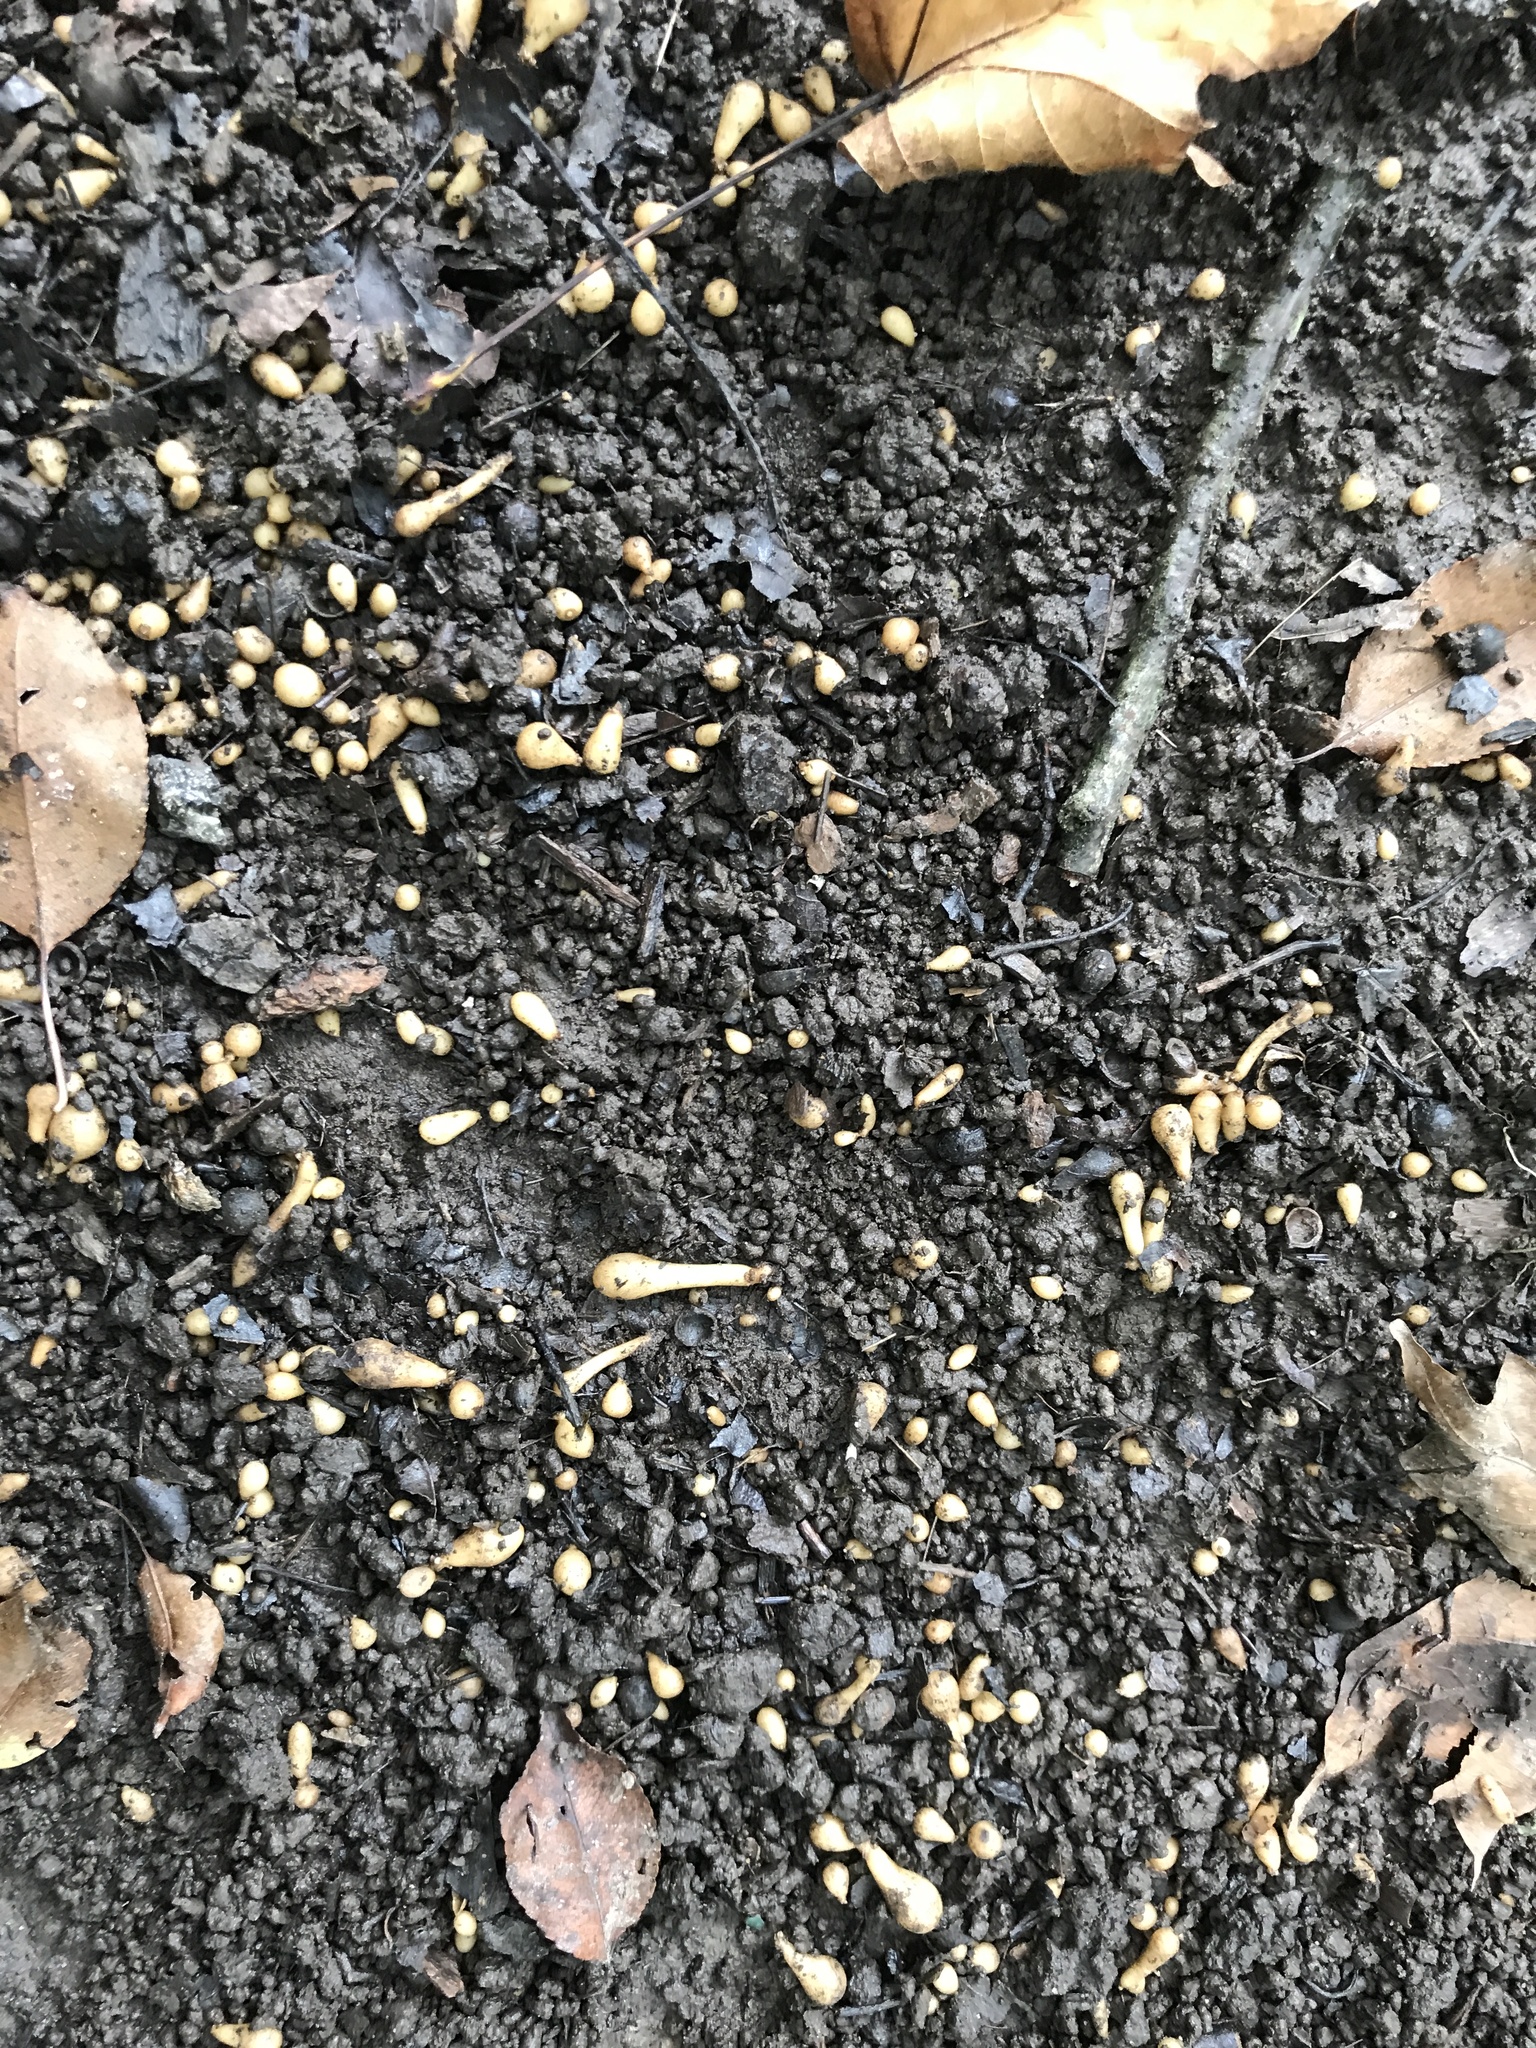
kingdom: Plantae
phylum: Tracheophyta
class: Magnoliopsida
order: Ranunculales
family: Ranunculaceae
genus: Ficaria
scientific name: Ficaria verna
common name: Lesser celandine
